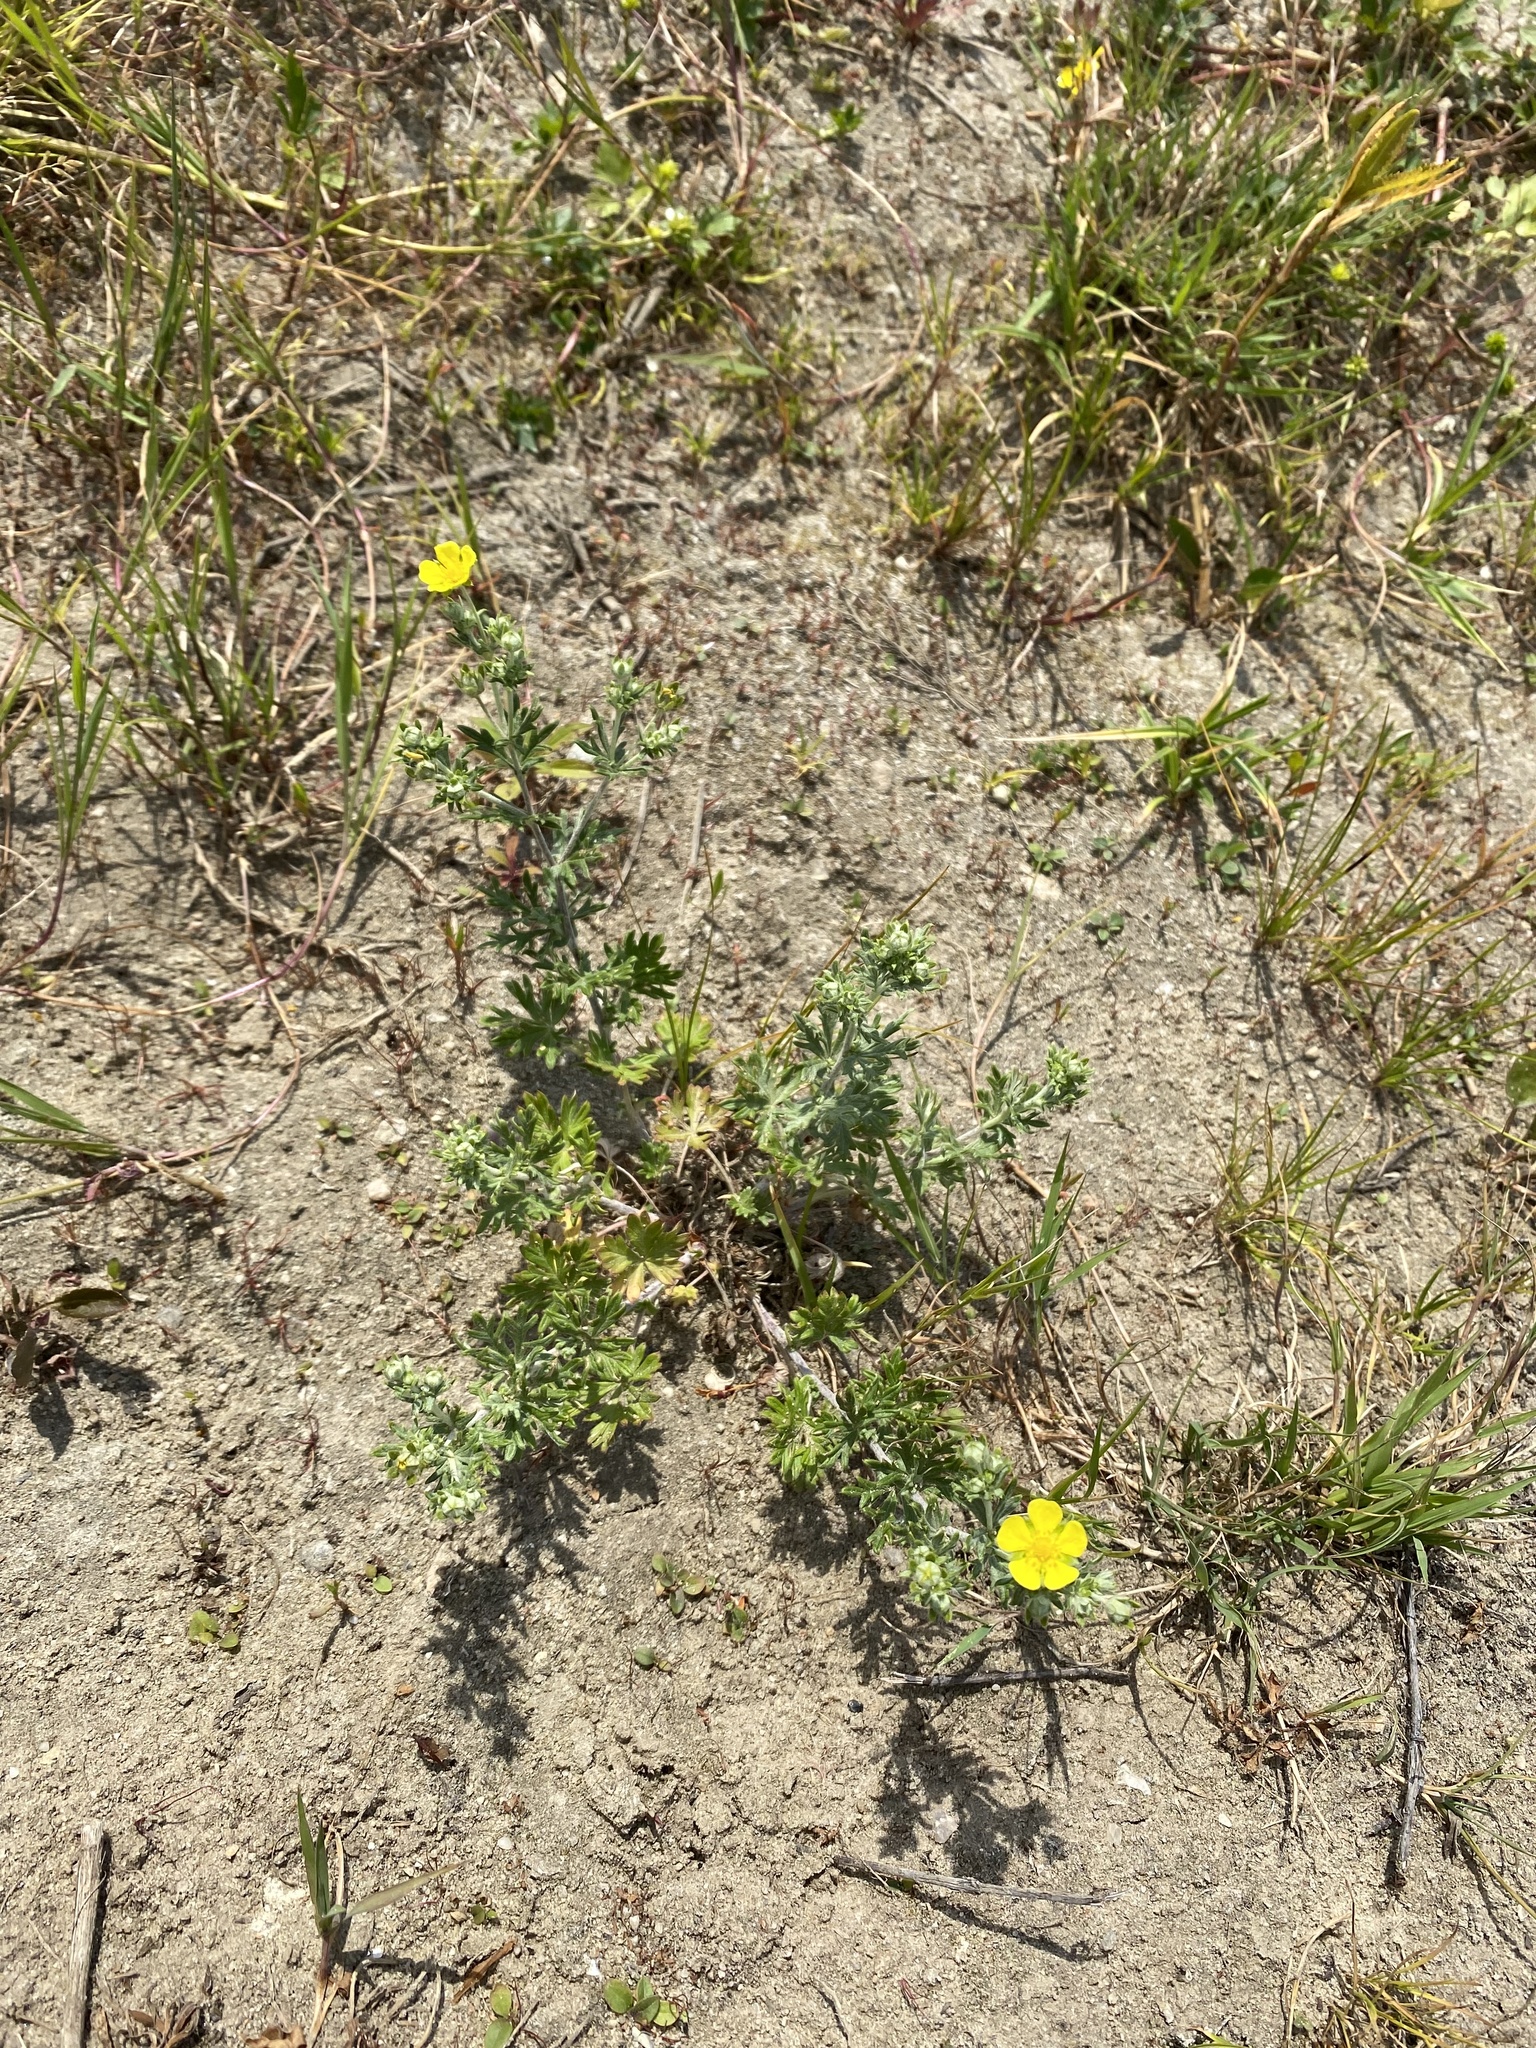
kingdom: Plantae
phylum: Tracheophyta
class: Magnoliopsida
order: Rosales
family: Rosaceae
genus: Potentilla
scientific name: Potentilla argentea
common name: Hoary cinquefoil
